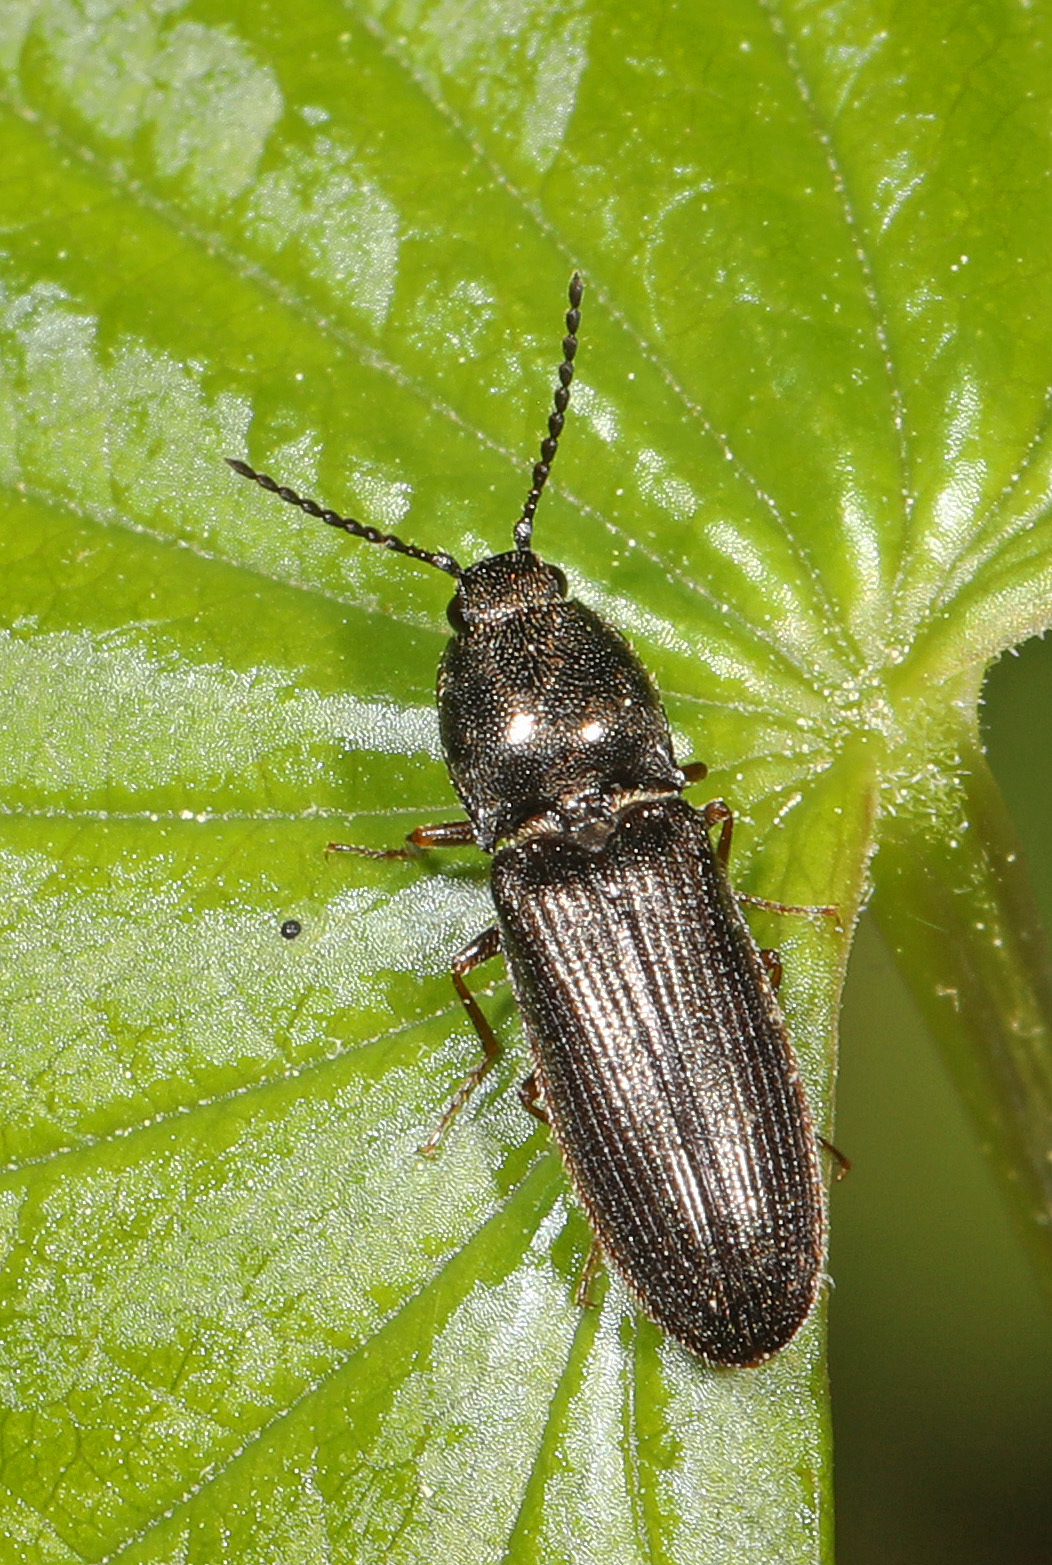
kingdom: Animalia
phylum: Arthropoda
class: Insecta
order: Coleoptera
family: Elateridae
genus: Limonius
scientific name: Limonius quercinus
